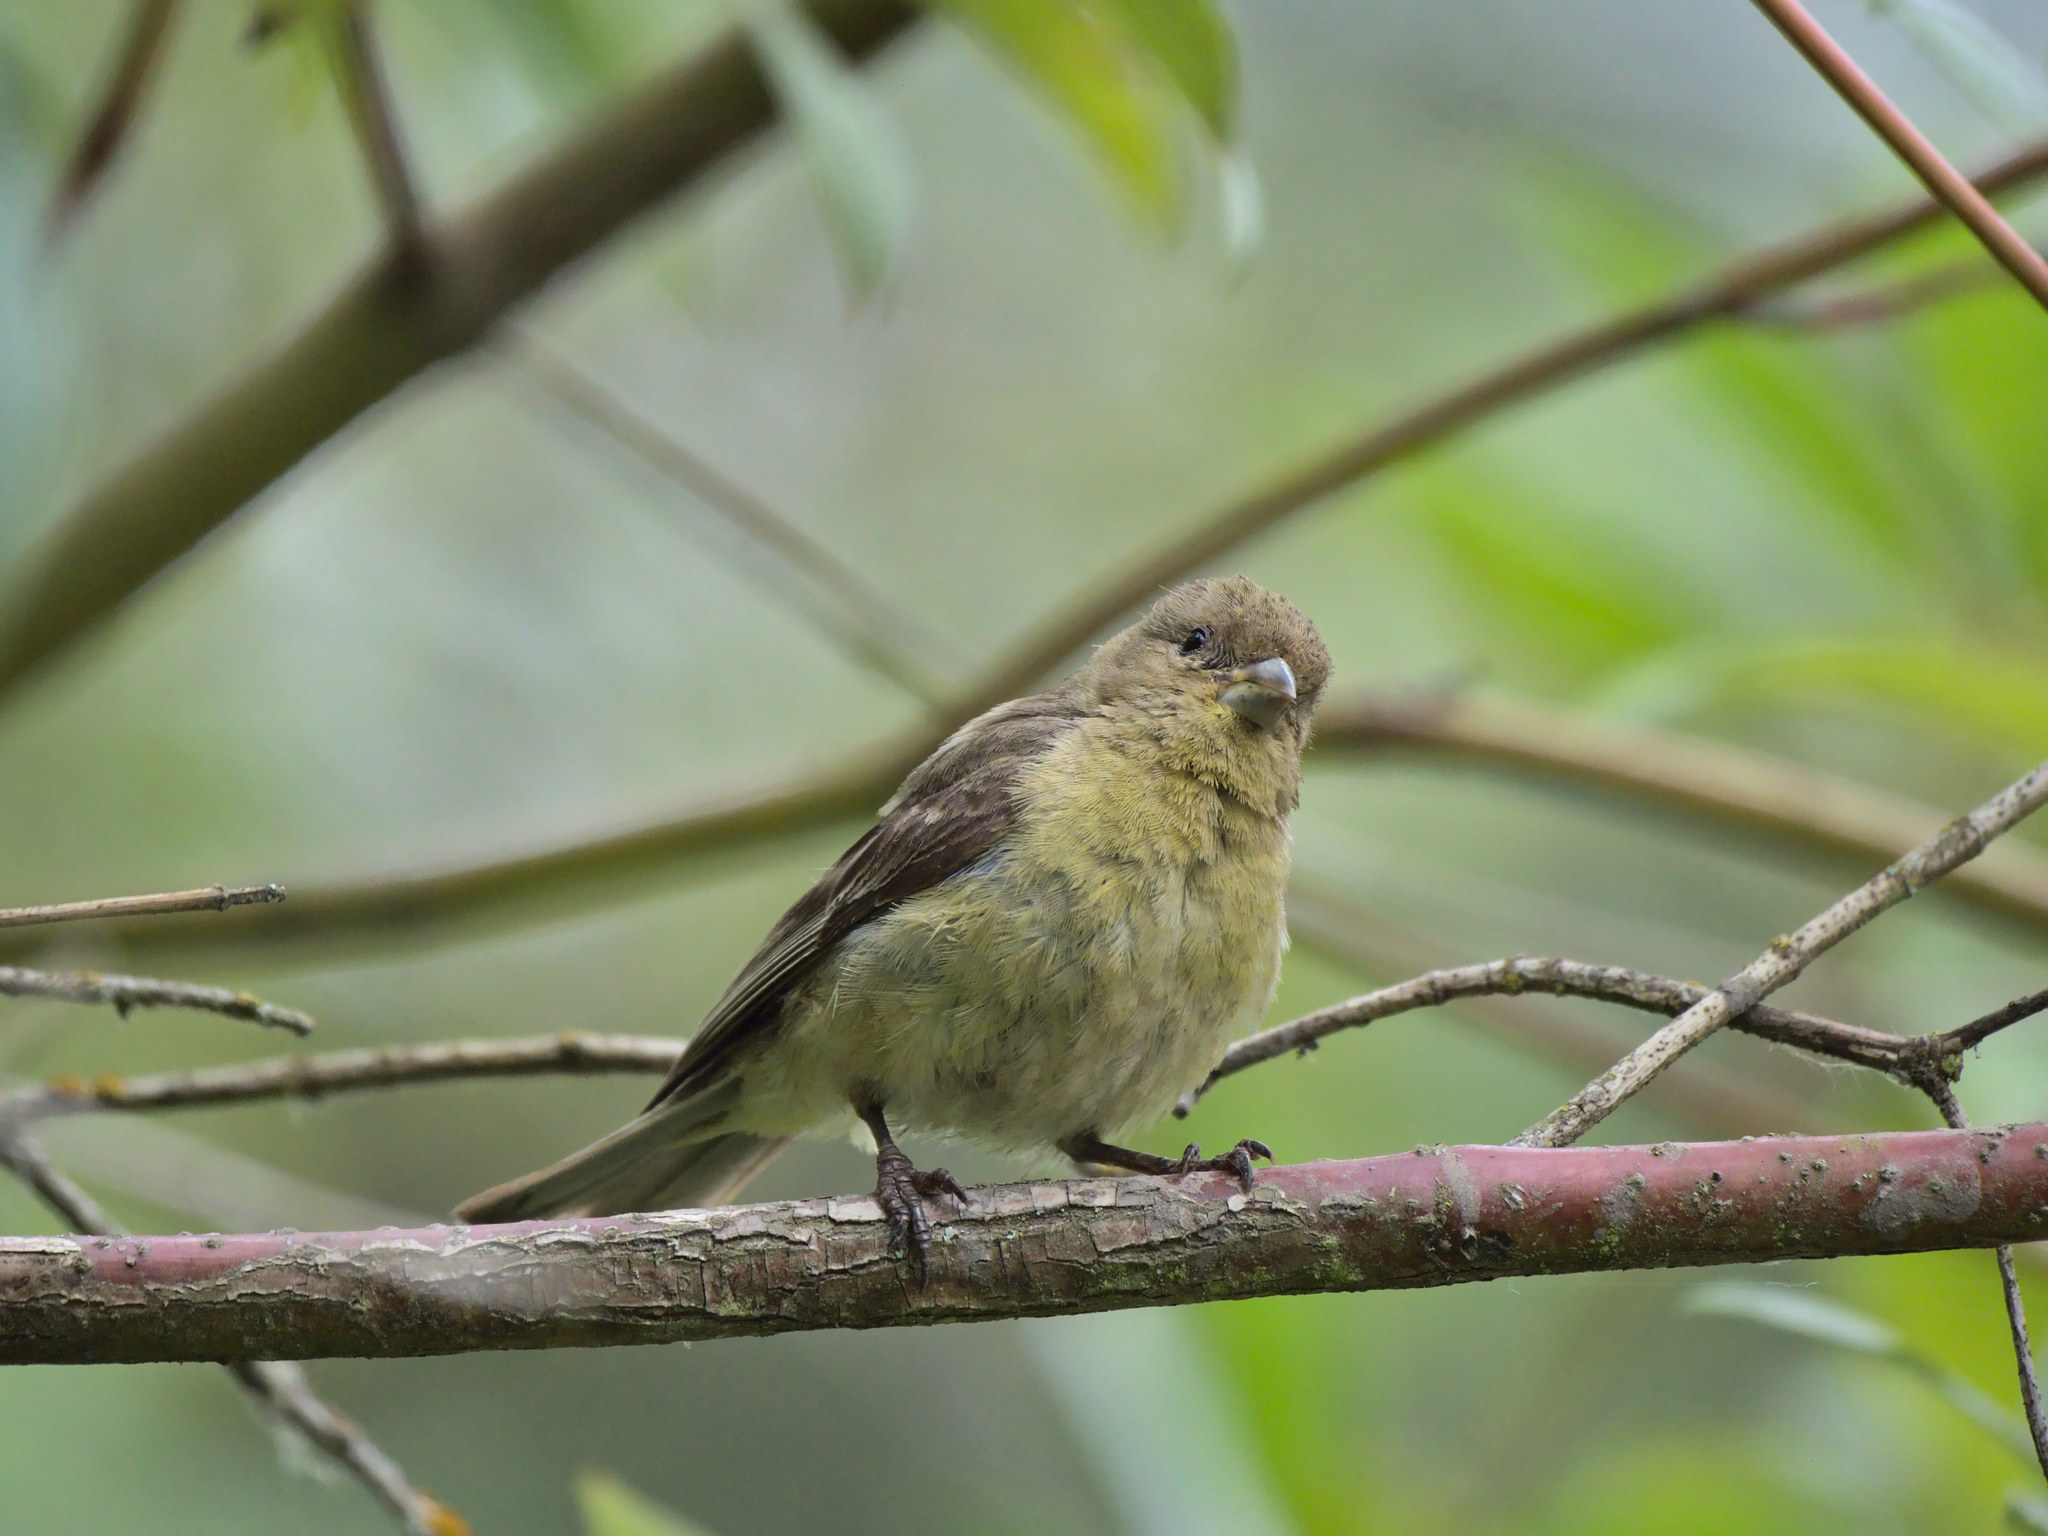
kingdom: Animalia
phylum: Chordata
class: Aves
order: Passeriformes
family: Fringillidae
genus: Spinus
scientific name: Spinus psaltria
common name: Lesser goldfinch
